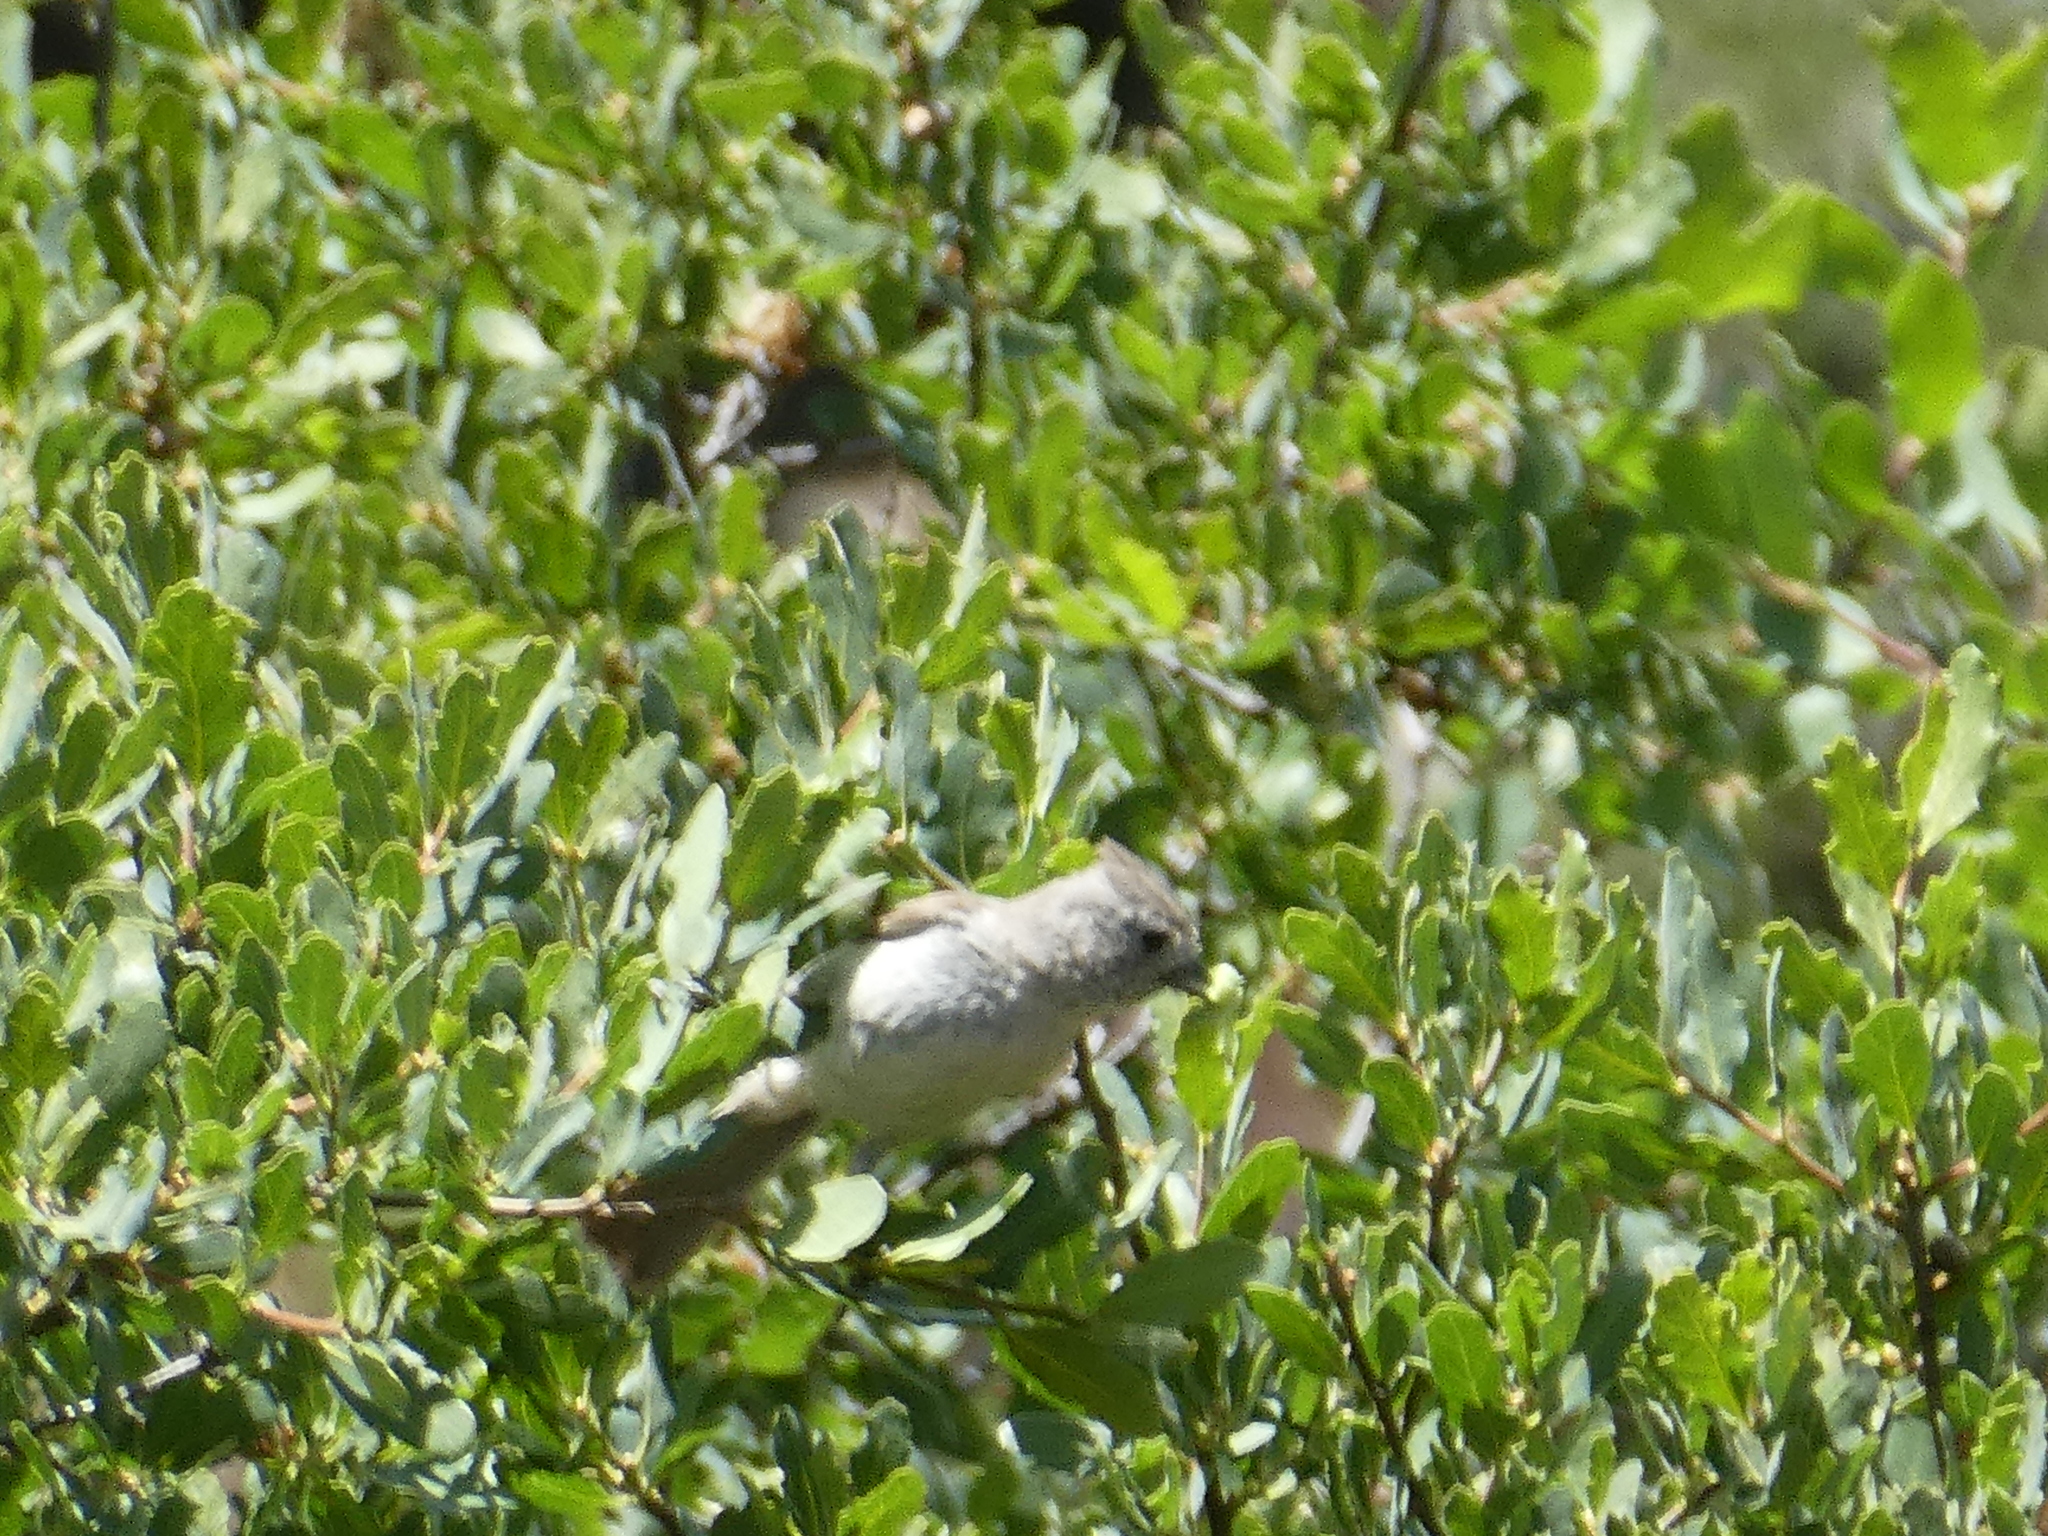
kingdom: Animalia
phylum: Chordata
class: Aves
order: Passeriformes
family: Paridae
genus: Baeolophus
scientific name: Baeolophus inornatus
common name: Oak titmouse
